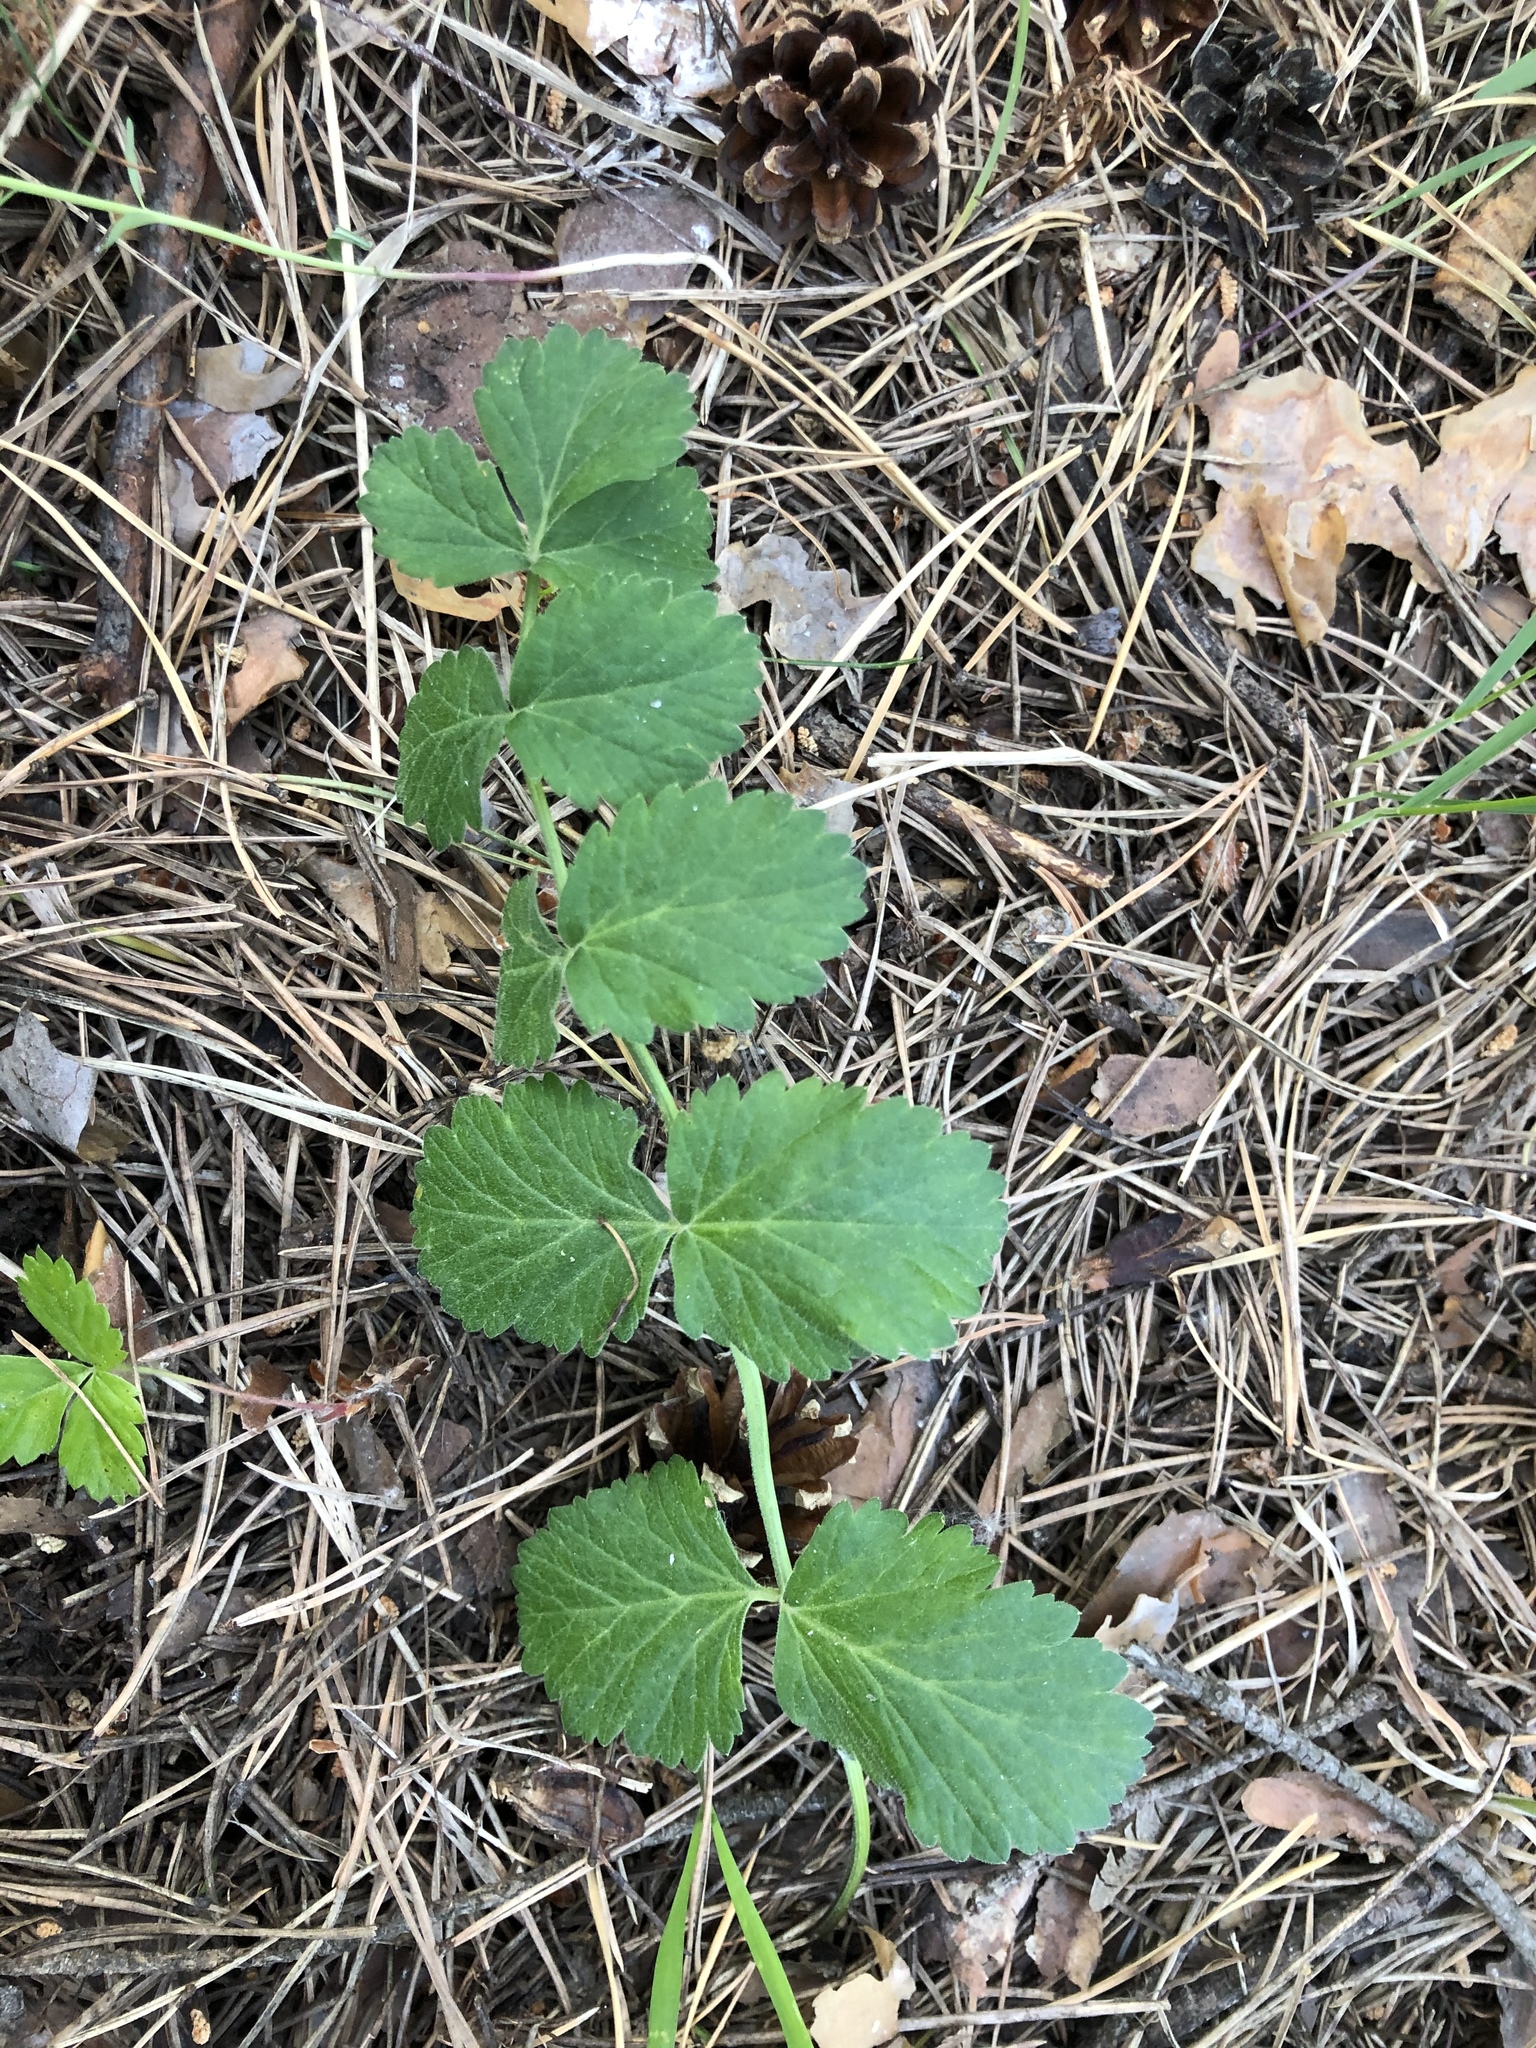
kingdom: Plantae
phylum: Tracheophyta
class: Magnoliopsida
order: Apiales
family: Apiaceae
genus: Pimpinella
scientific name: Pimpinella saxifraga
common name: Burnet-saxifrage
